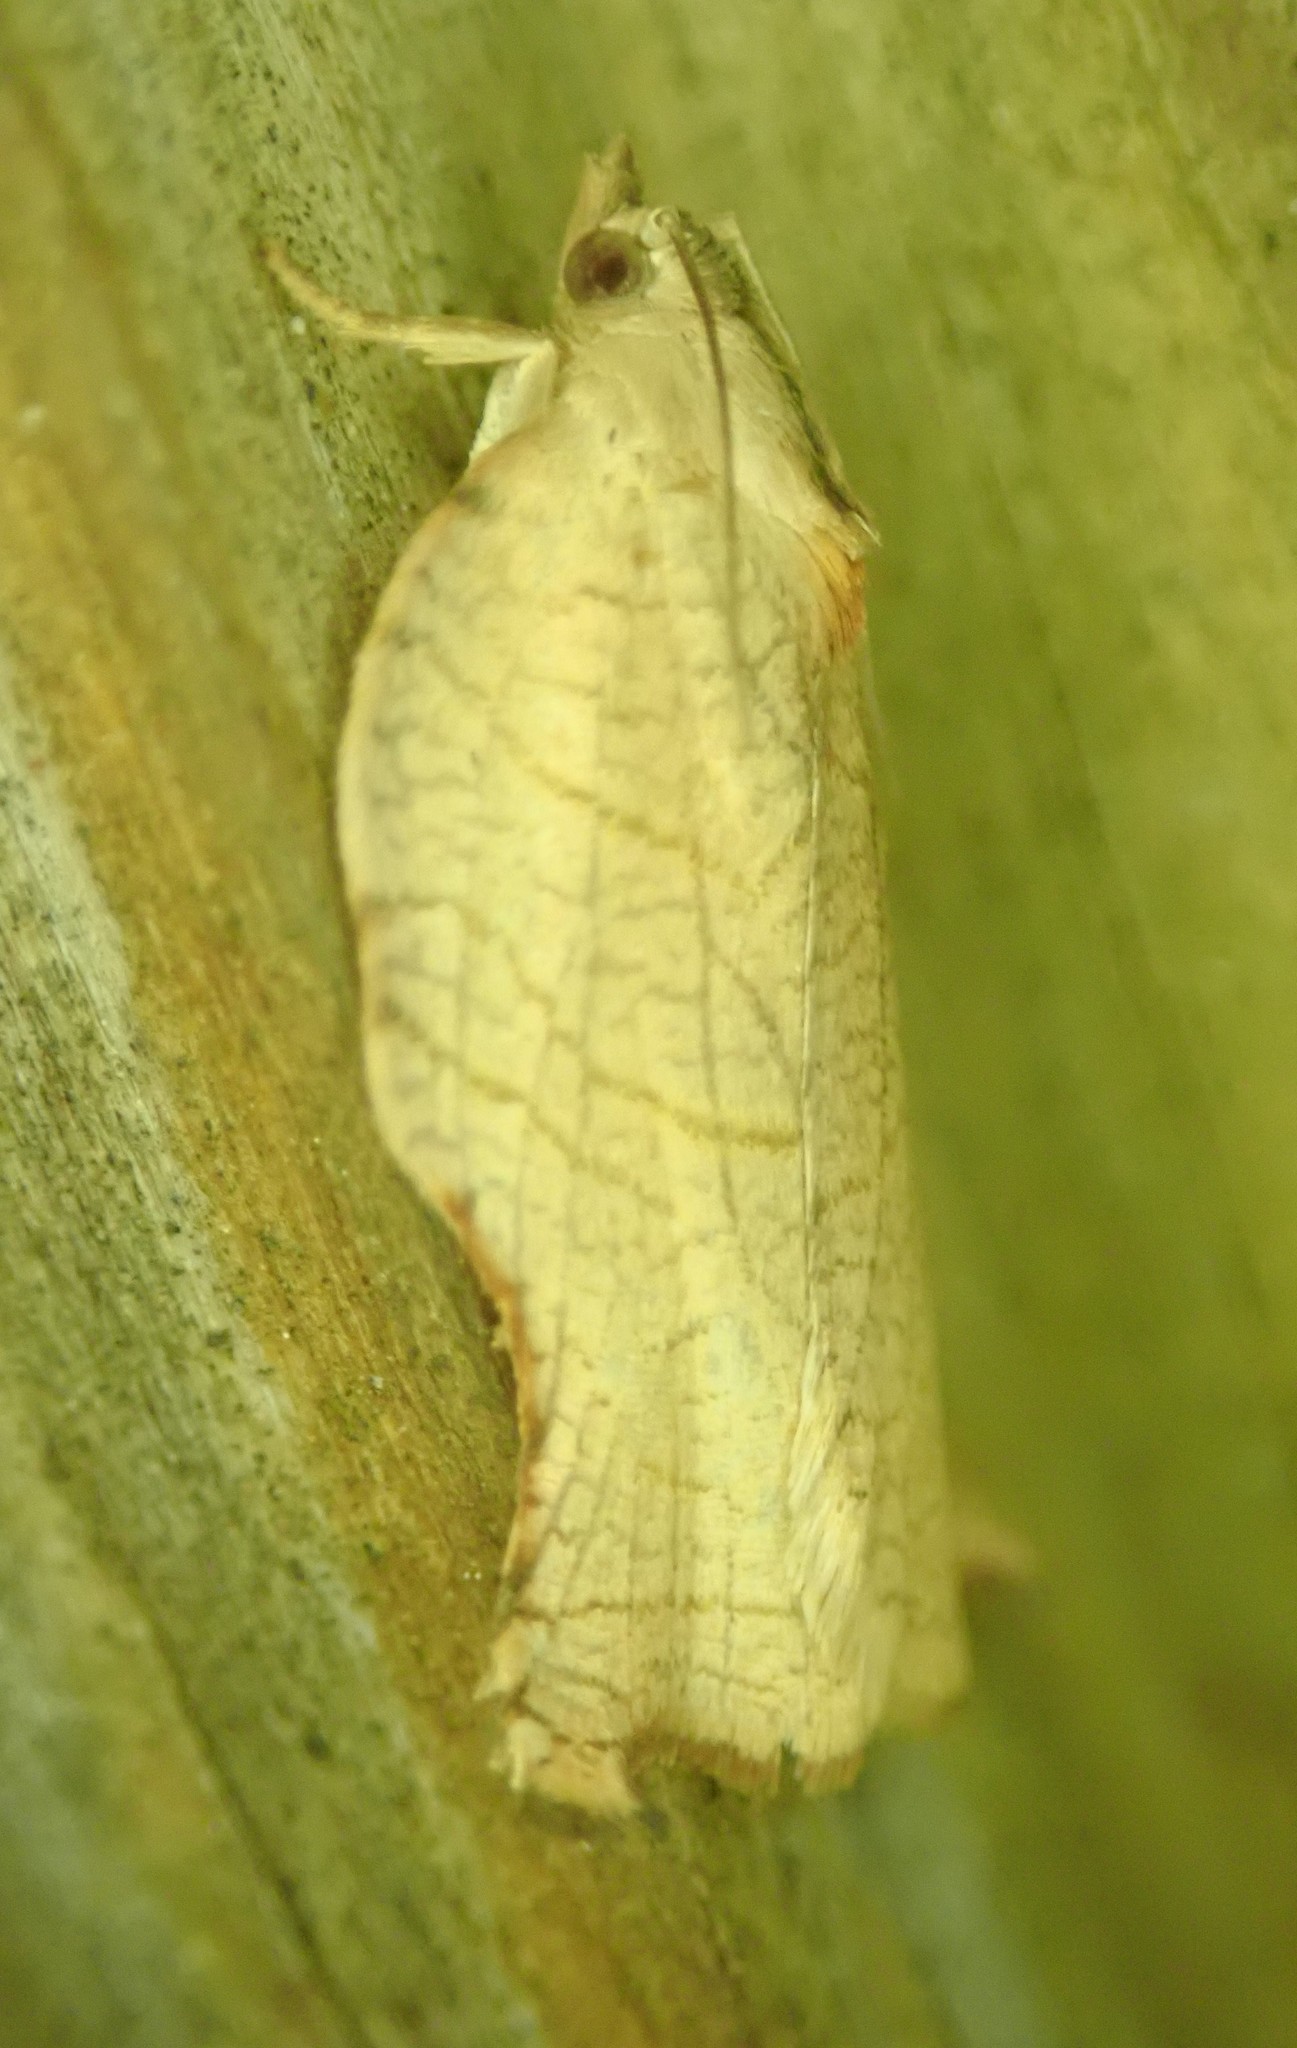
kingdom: Animalia
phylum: Arthropoda
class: Insecta
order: Lepidoptera
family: Tortricidae
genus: Archips
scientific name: Archips purpurana
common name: Omnivorous leafroller
